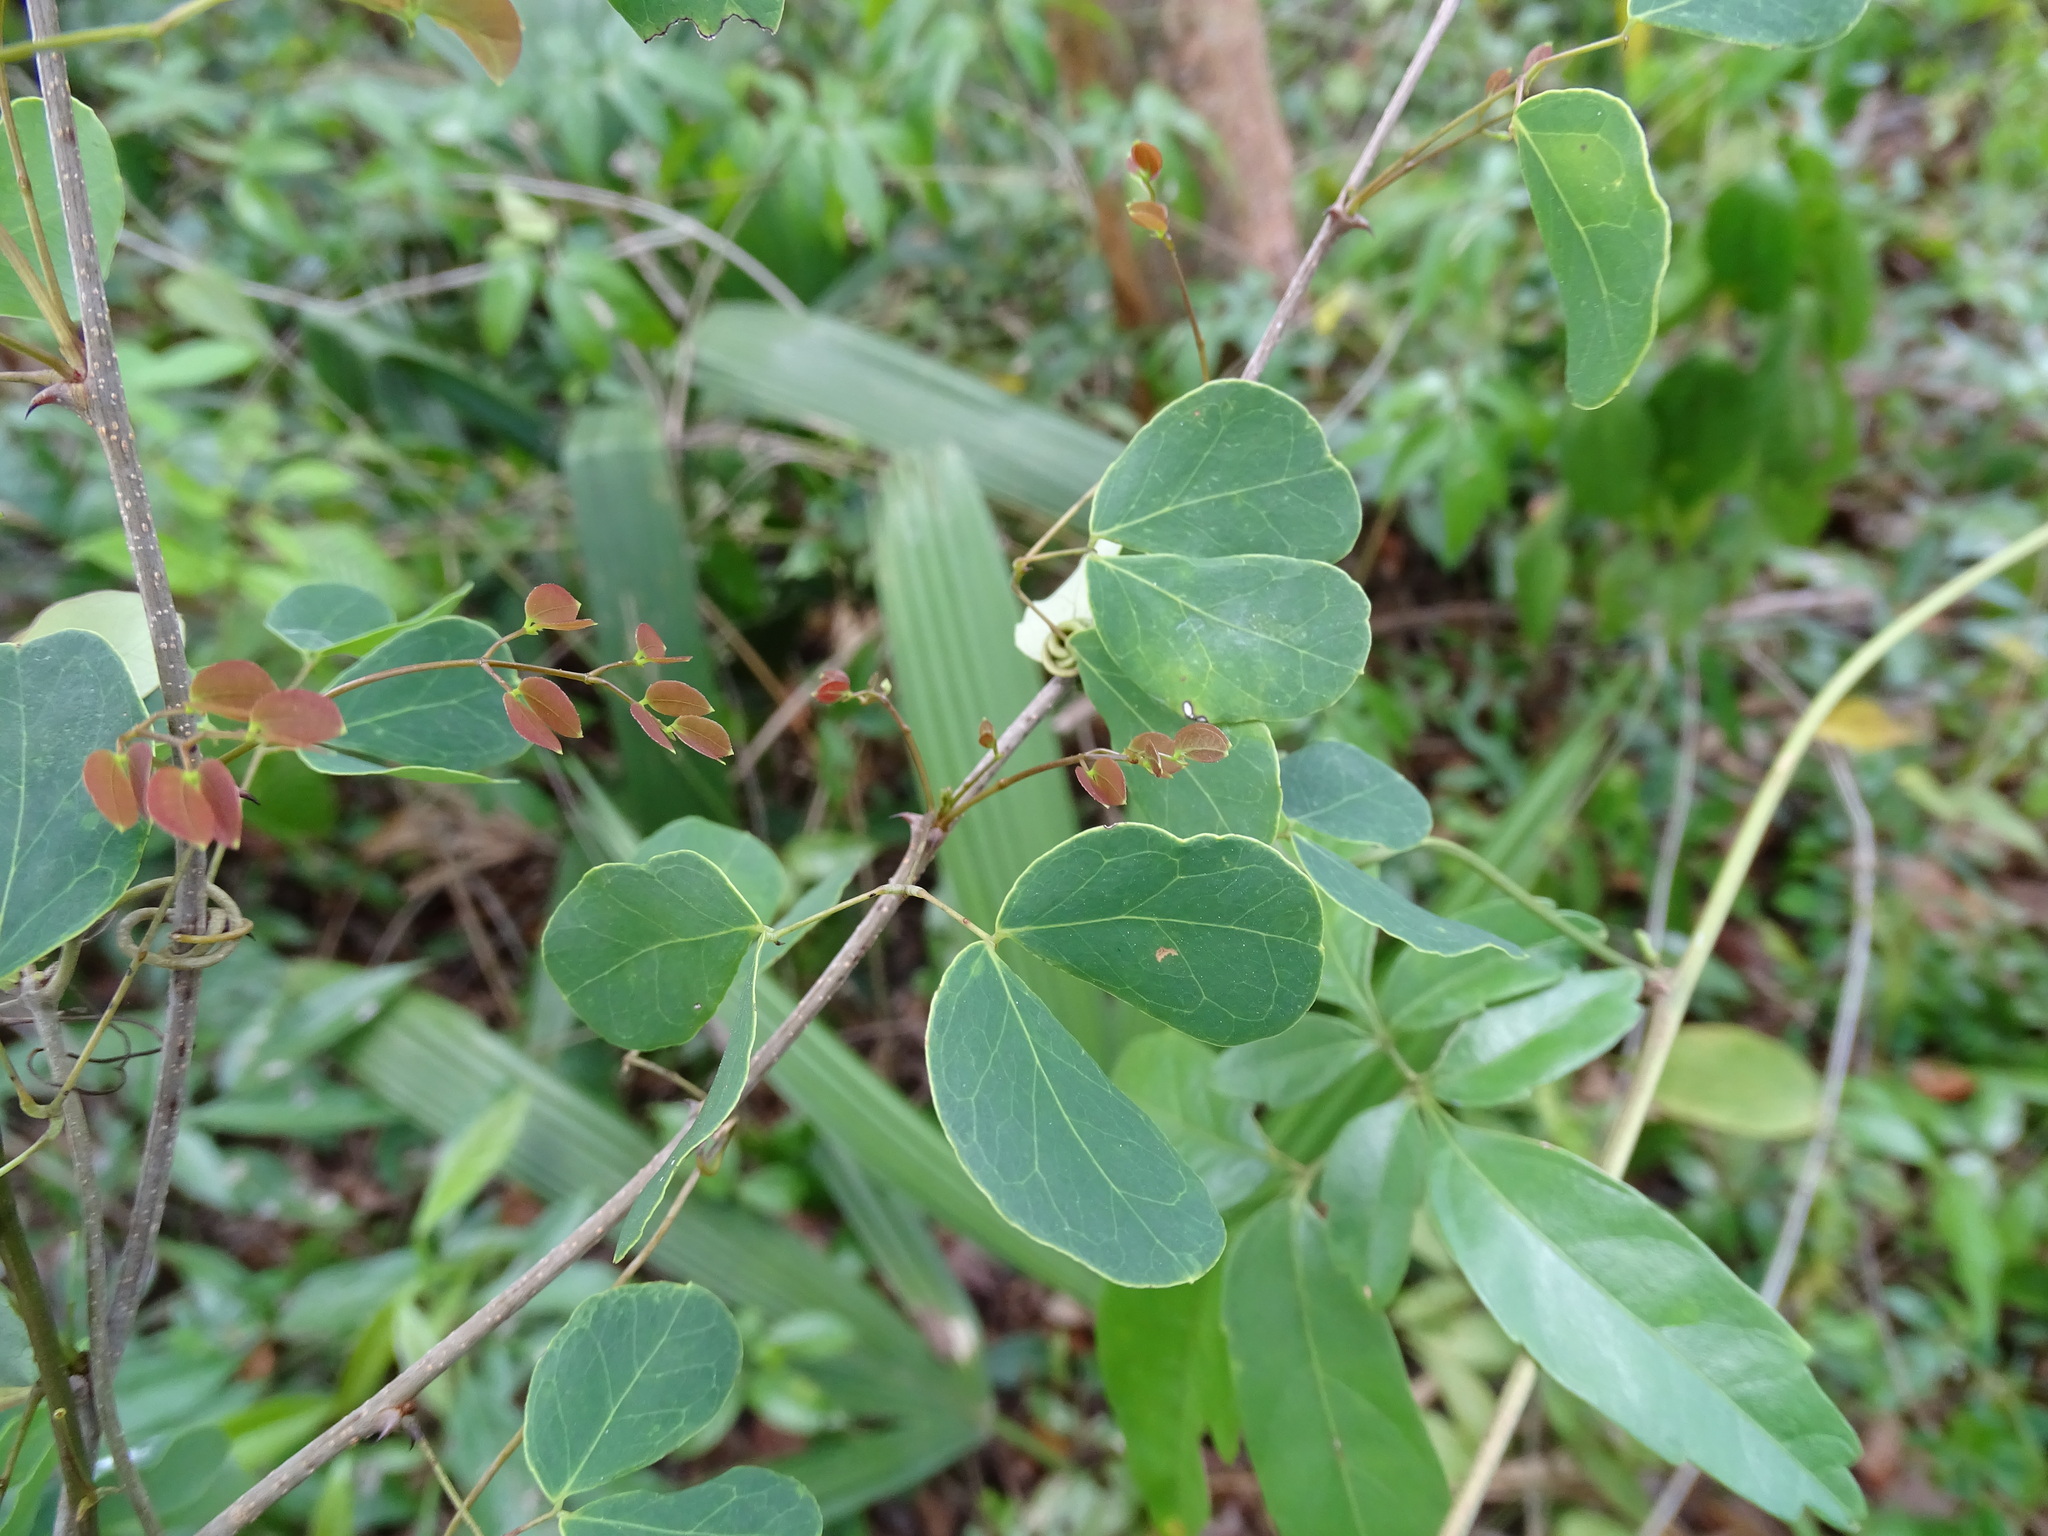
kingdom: Plantae
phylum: Tracheophyta
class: Magnoliopsida
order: Fabales
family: Fabaceae
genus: Havardia
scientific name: Havardia platyloba
